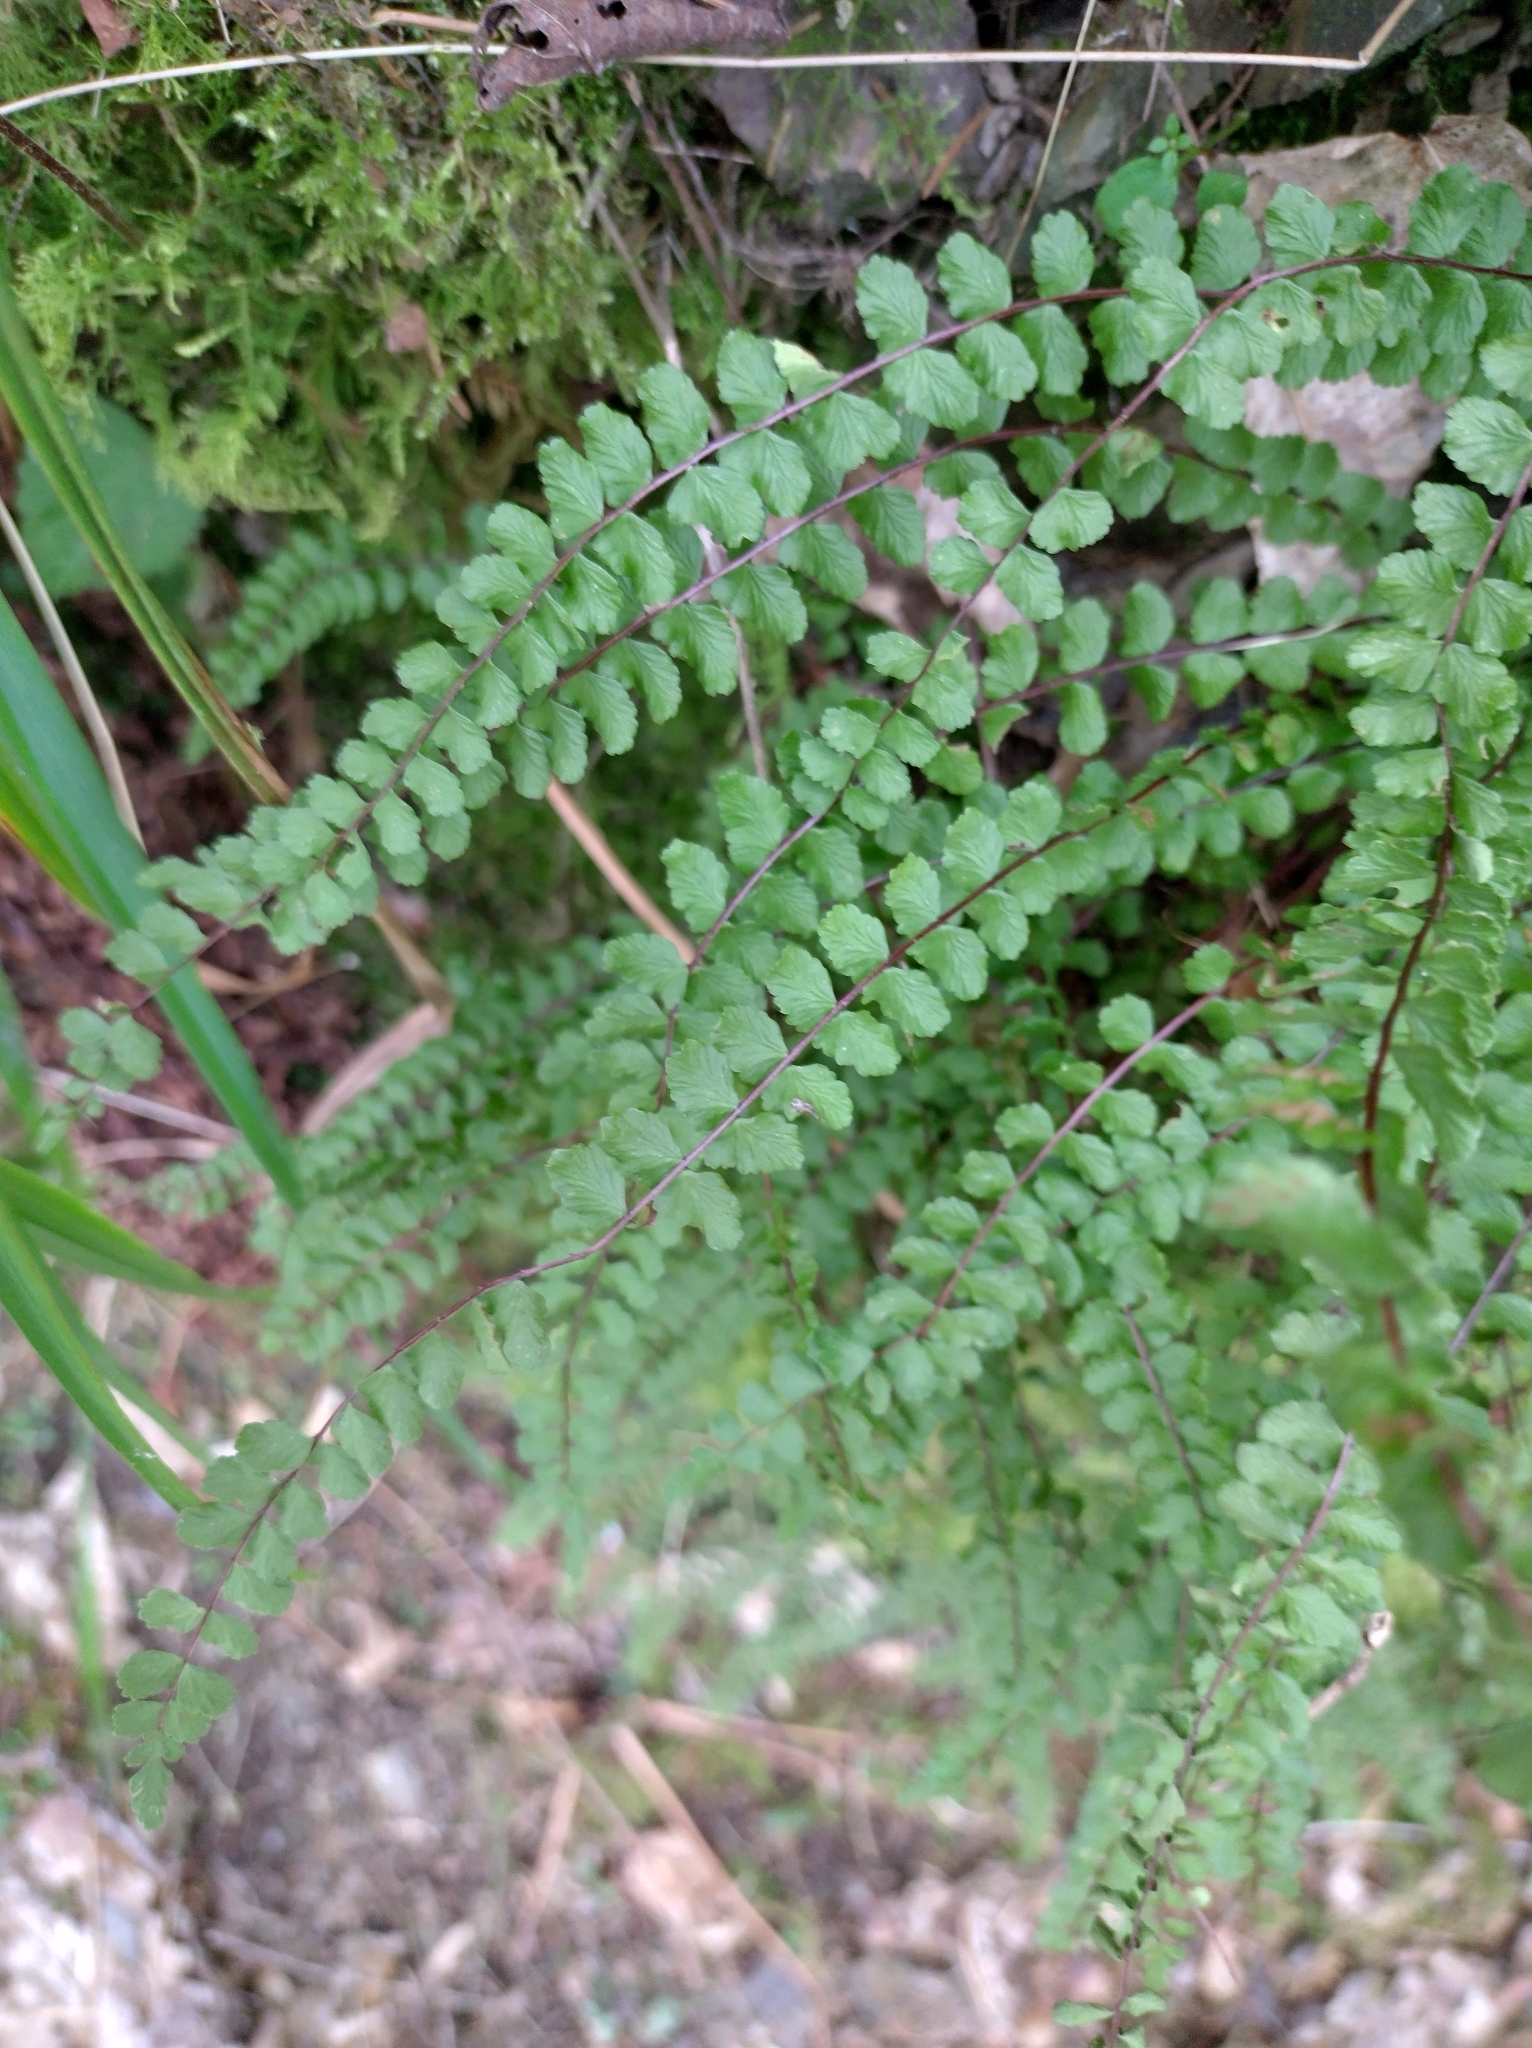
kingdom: Plantae
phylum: Tracheophyta
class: Polypodiopsida
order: Polypodiales
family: Aspleniaceae
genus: Asplenium
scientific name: Asplenium trichomanes
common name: Maidenhair spleenwort
